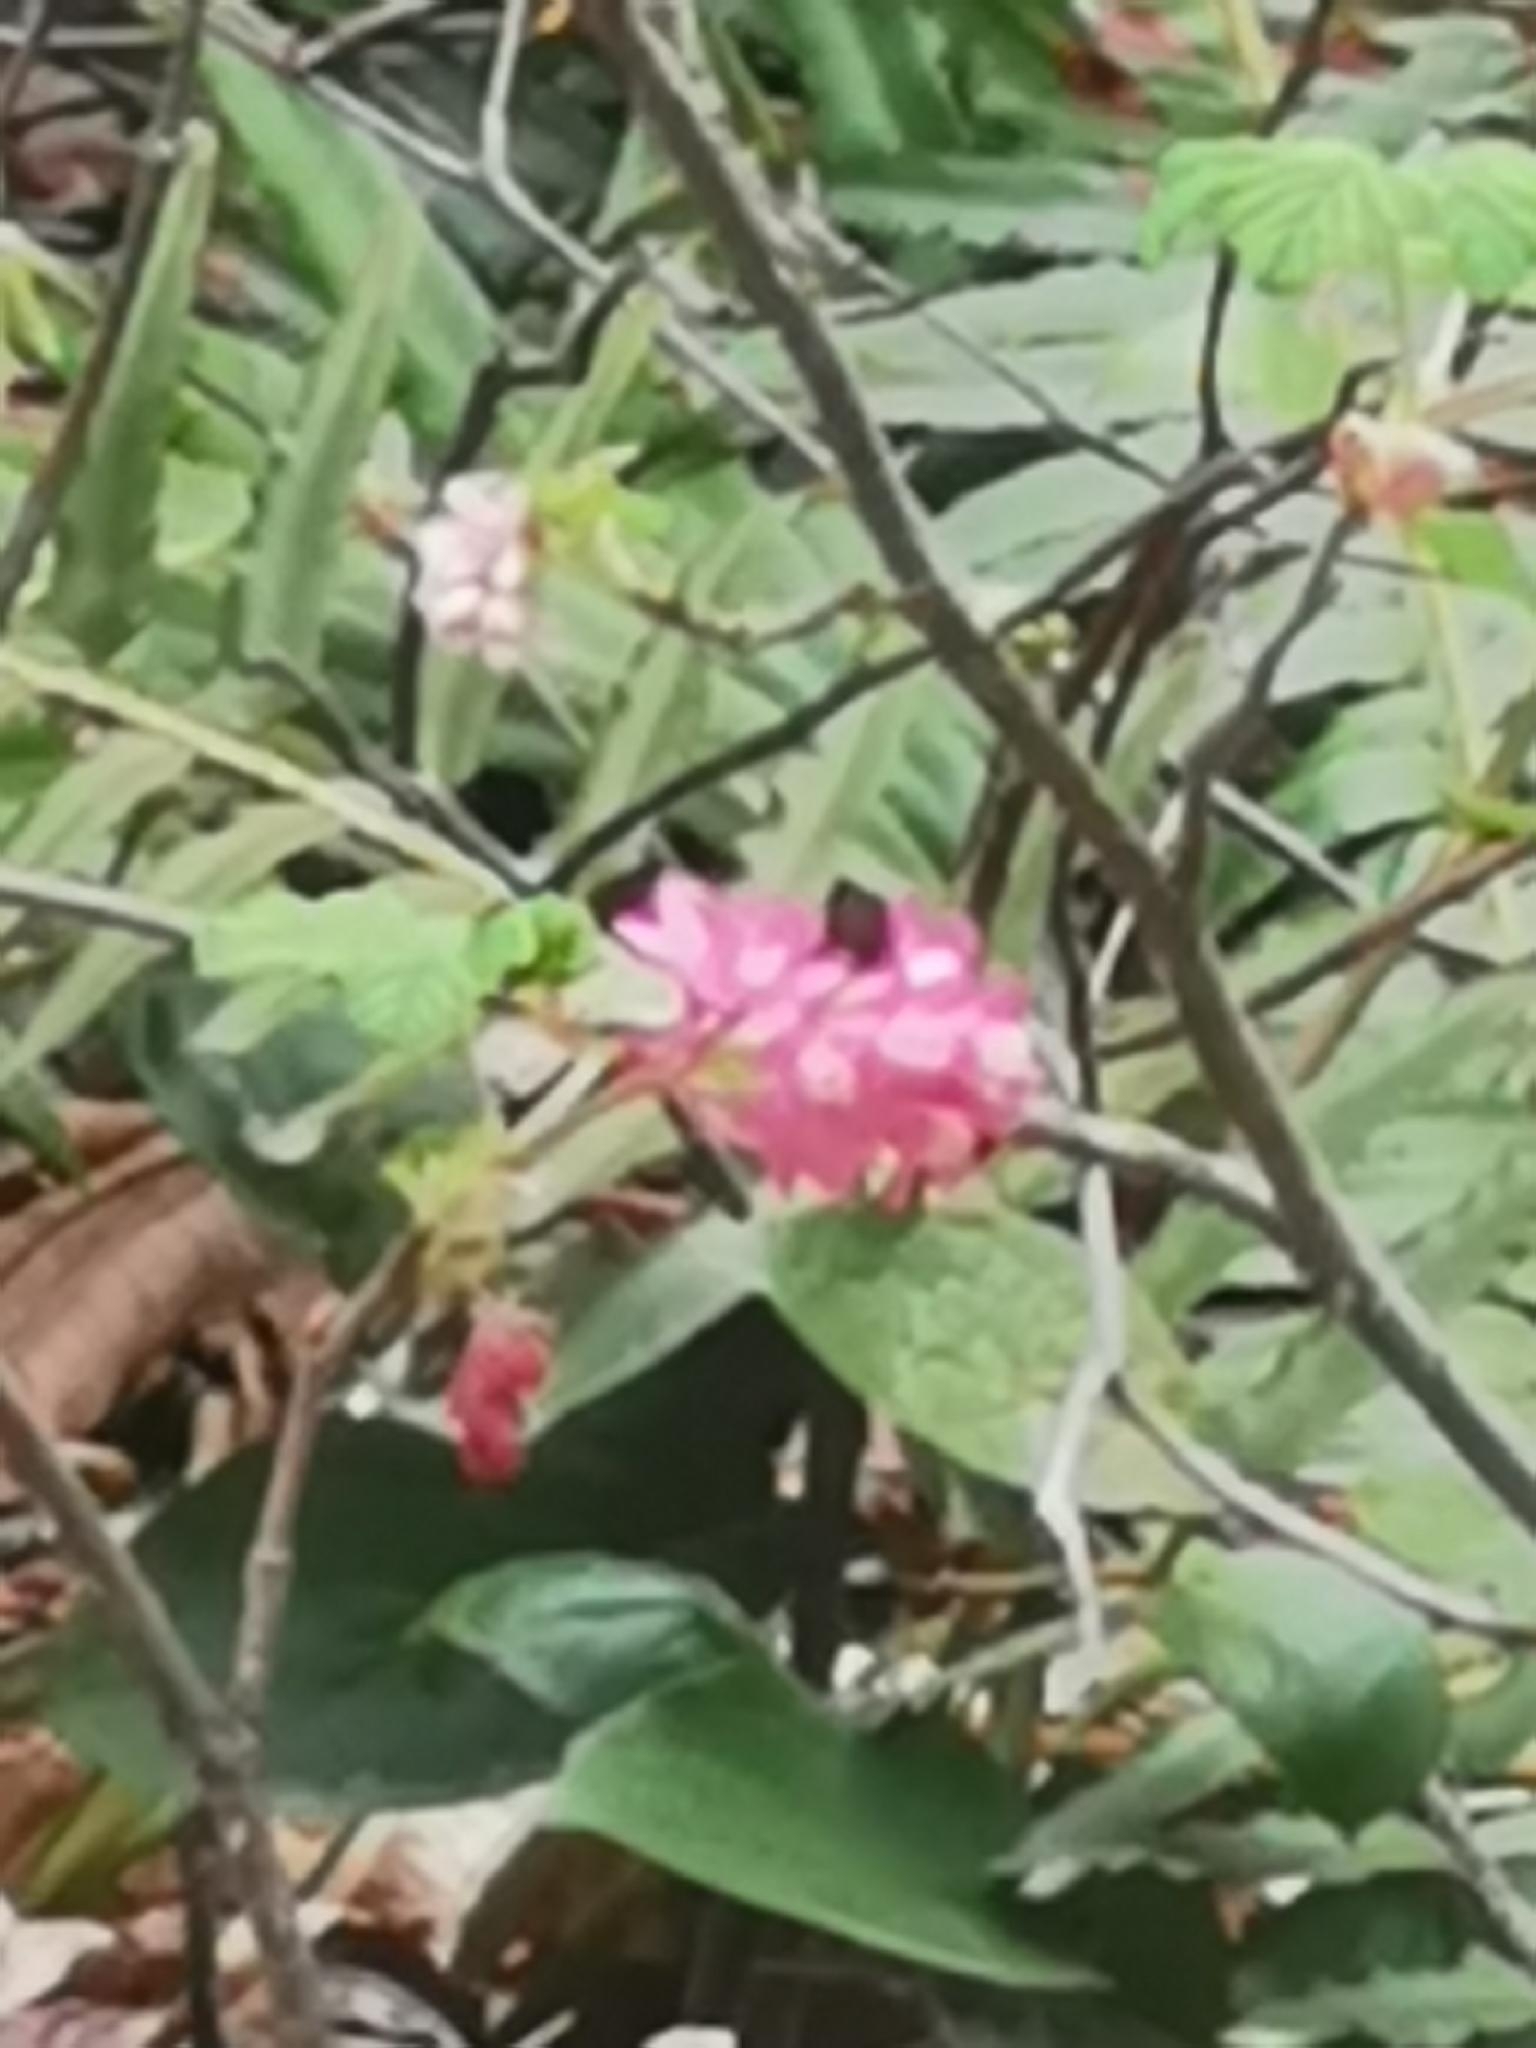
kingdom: Plantae
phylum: Tracheophyta
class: Magnoliopsida
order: Saxifragales
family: Grossulariaceae
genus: Ribes
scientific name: Ribes sanguineum
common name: Flowering currant
